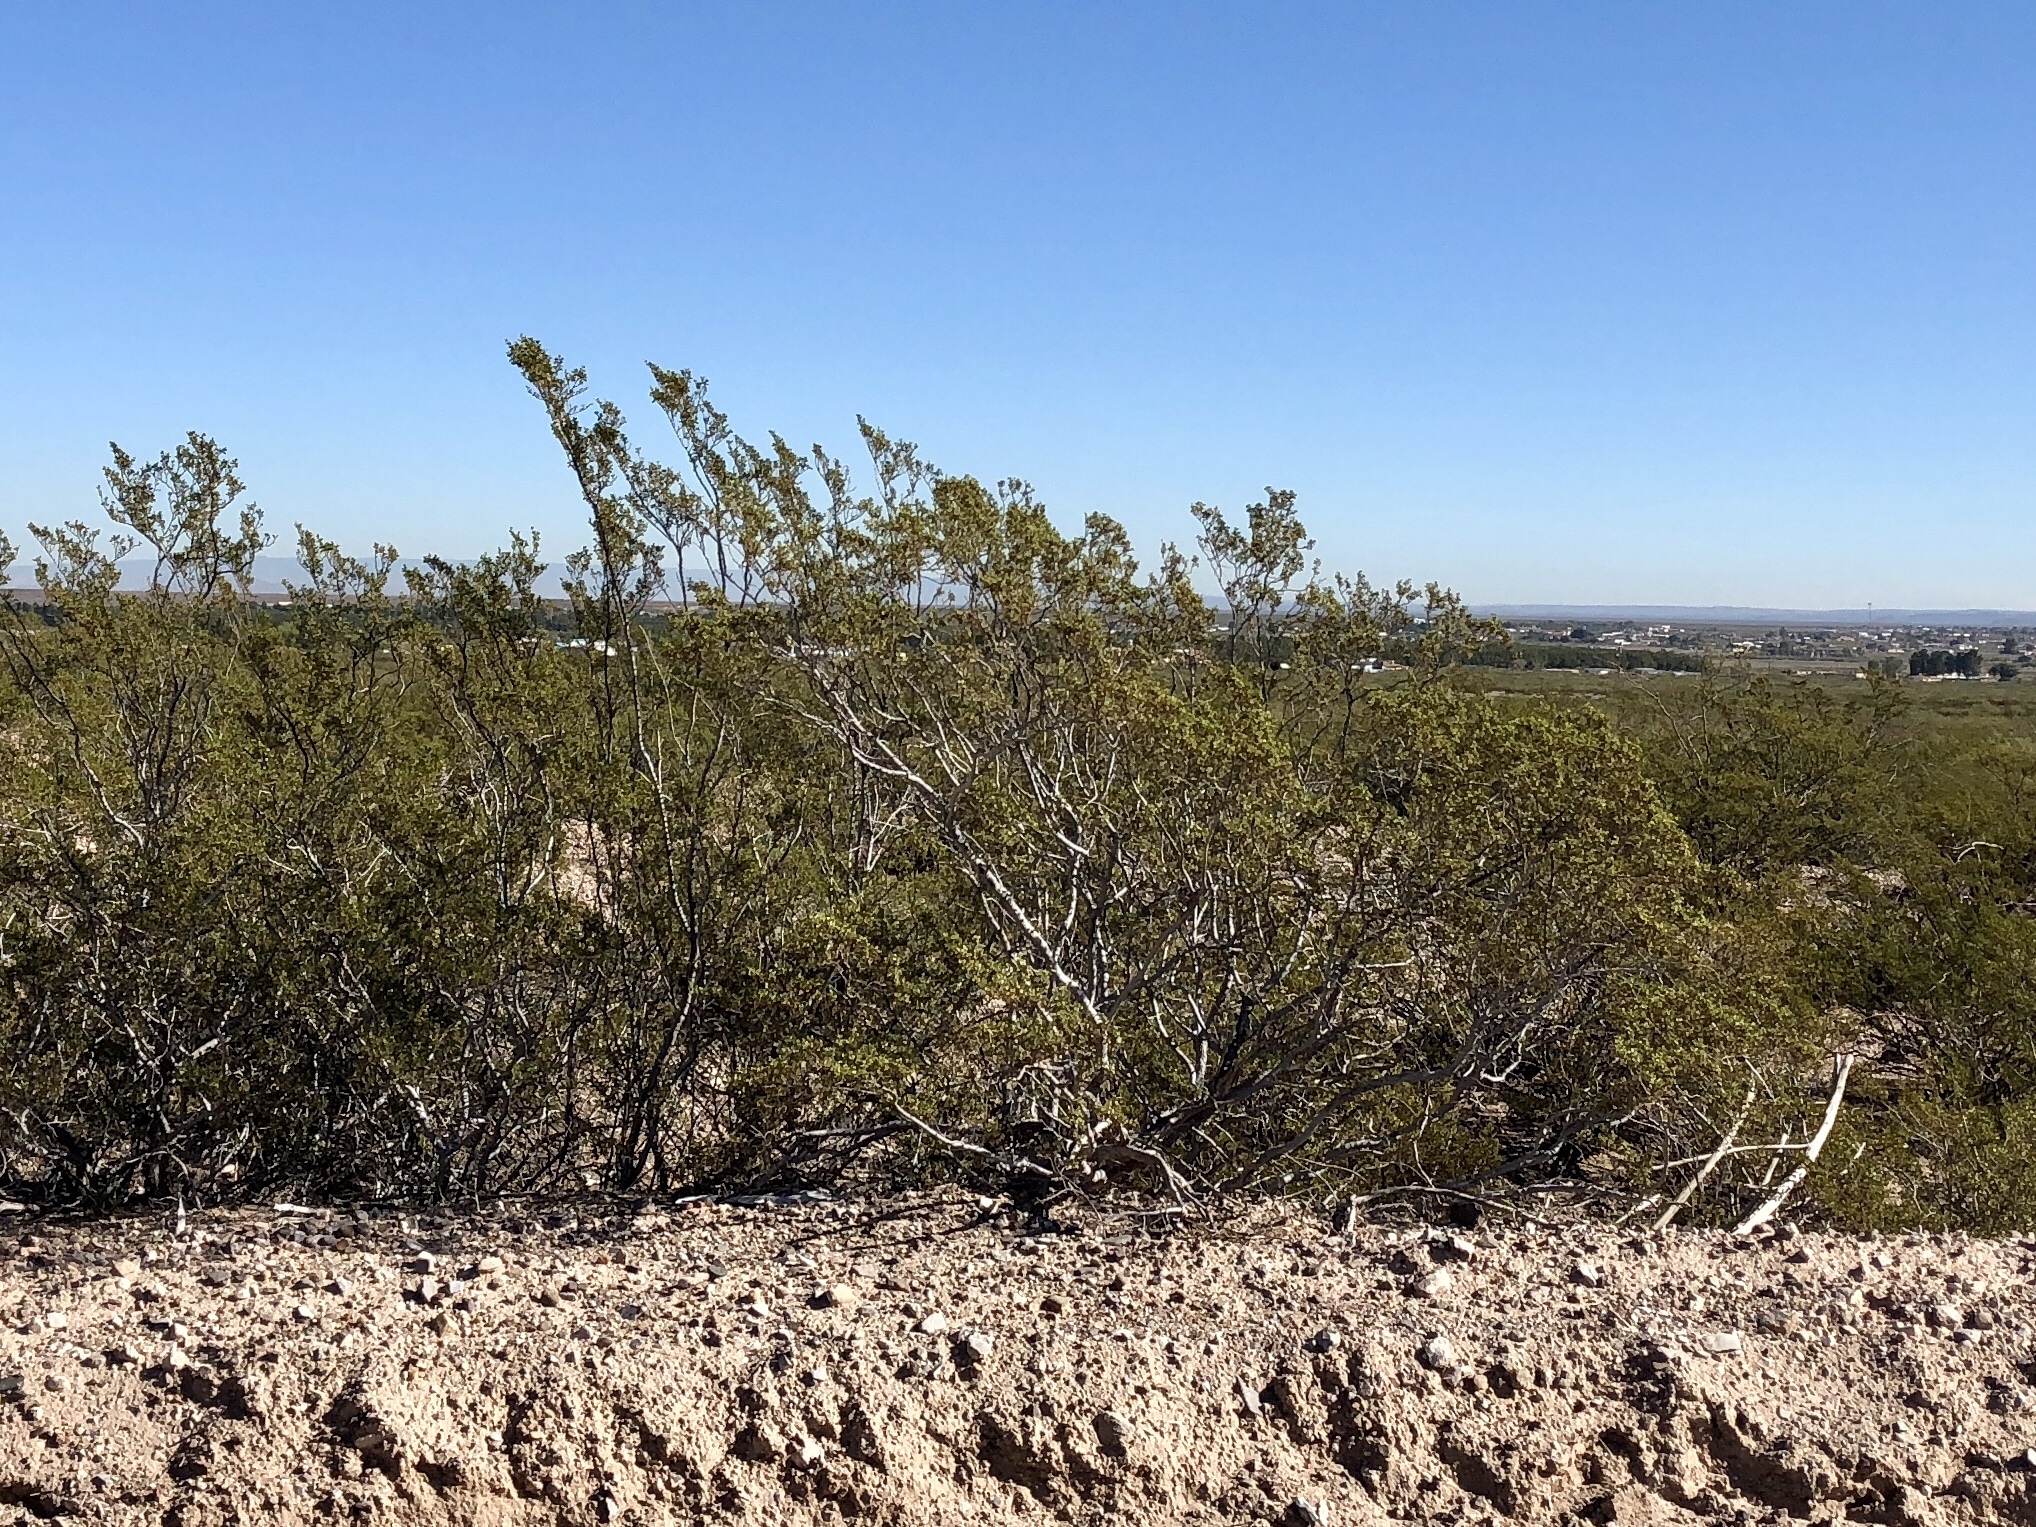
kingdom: Plantae
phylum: Tracheophyta
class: Magnoliopsida
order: Zygophyllales
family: Zygophyllaceae
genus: Larrea
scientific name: Larrea tridentata
